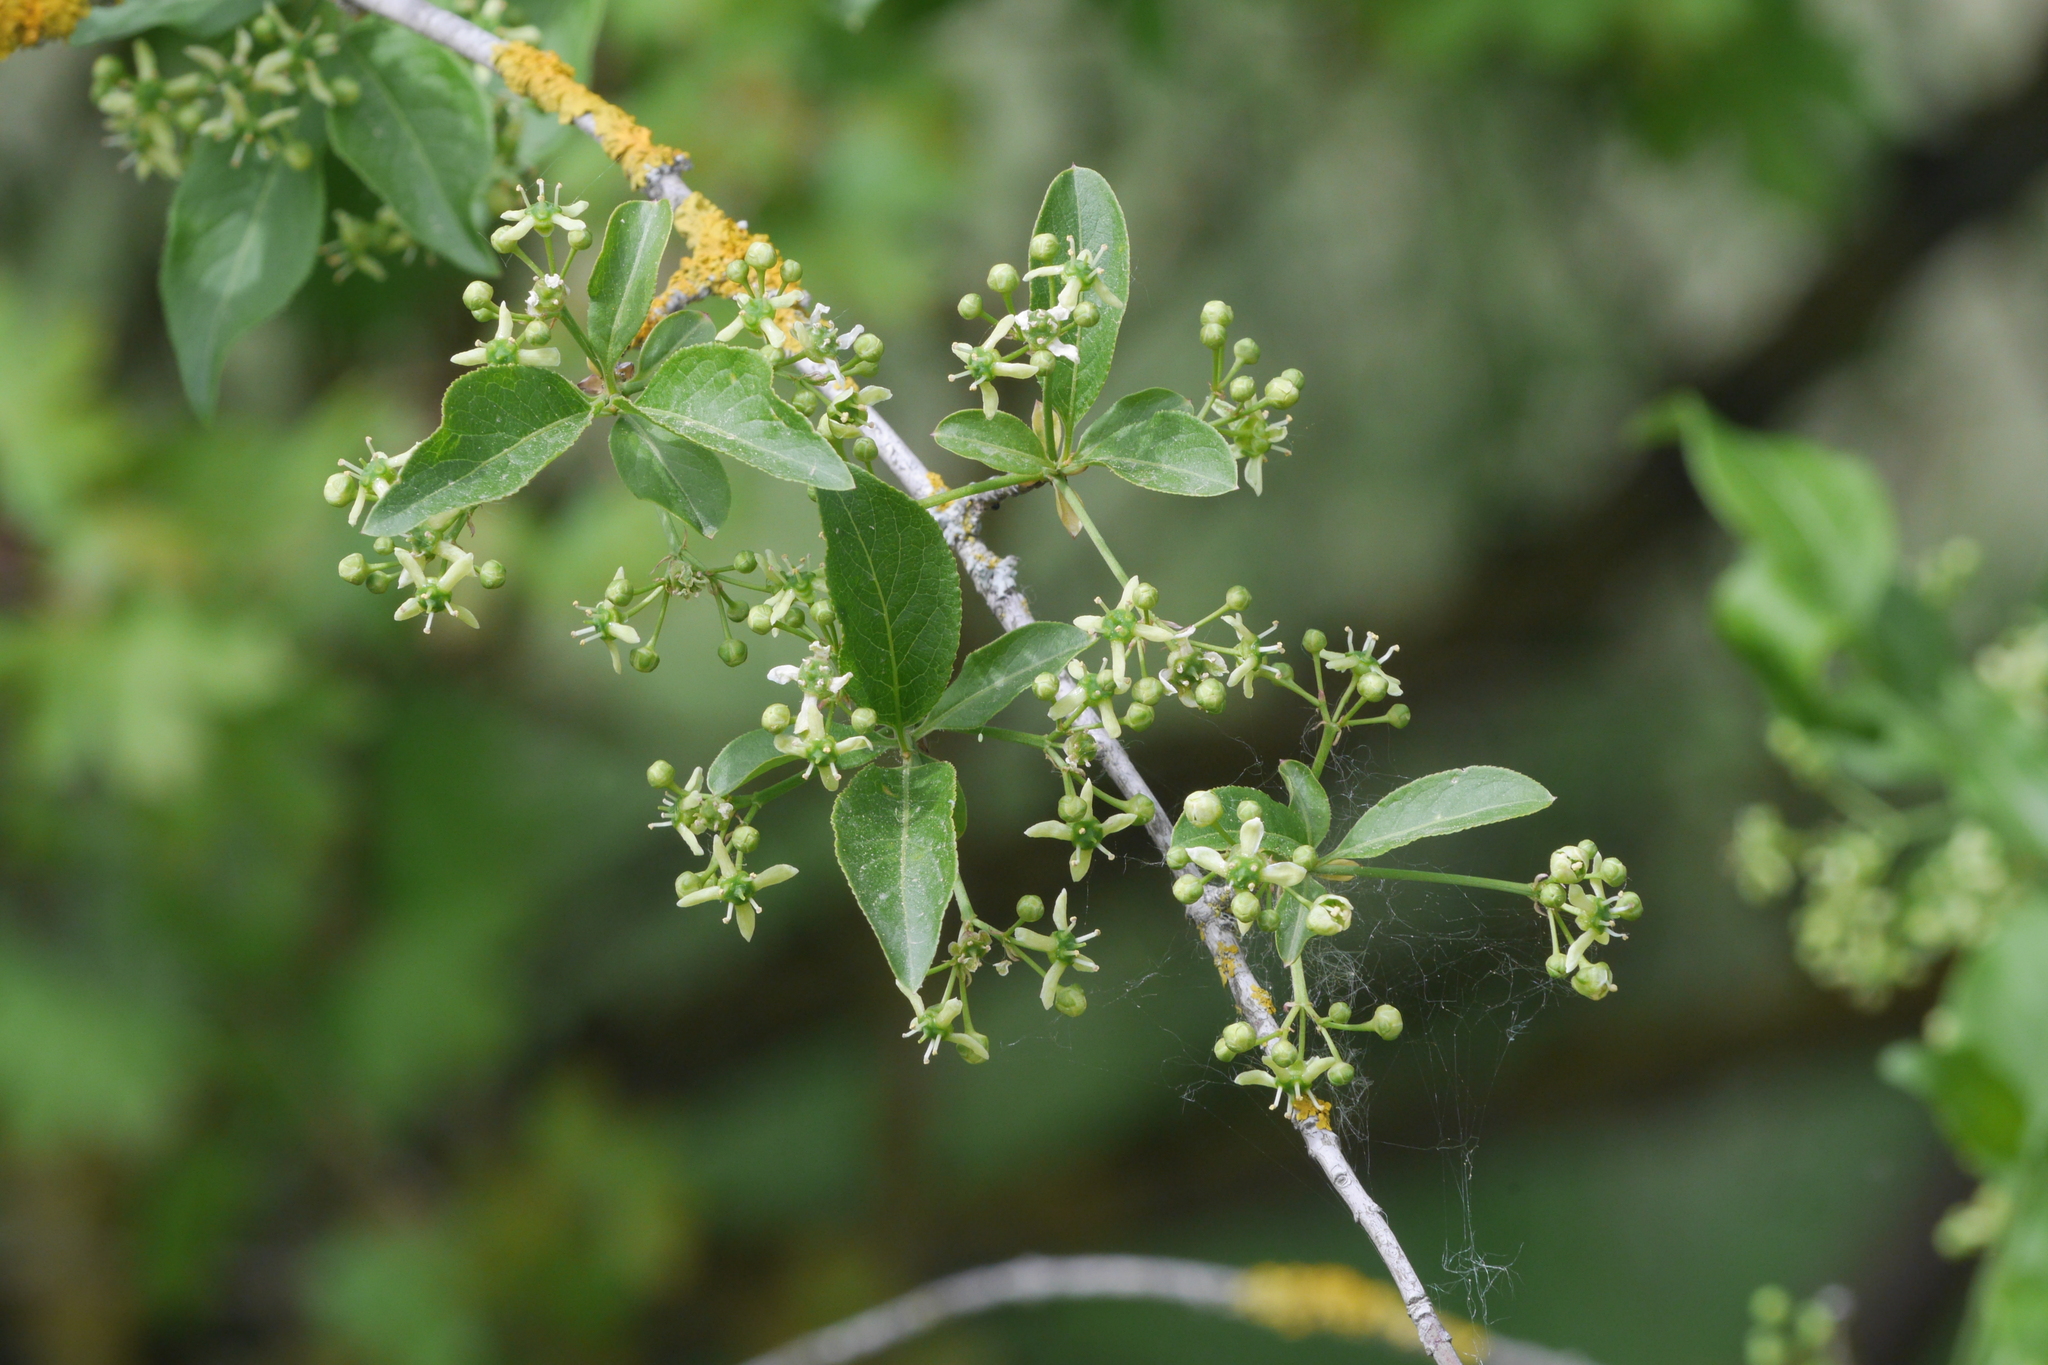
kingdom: Plantae
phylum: Tracheophyta
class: Magnoliopsida
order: Celastrales
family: Celastraceae
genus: Euonymus
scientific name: Euonymus europaeus
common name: Spindle
